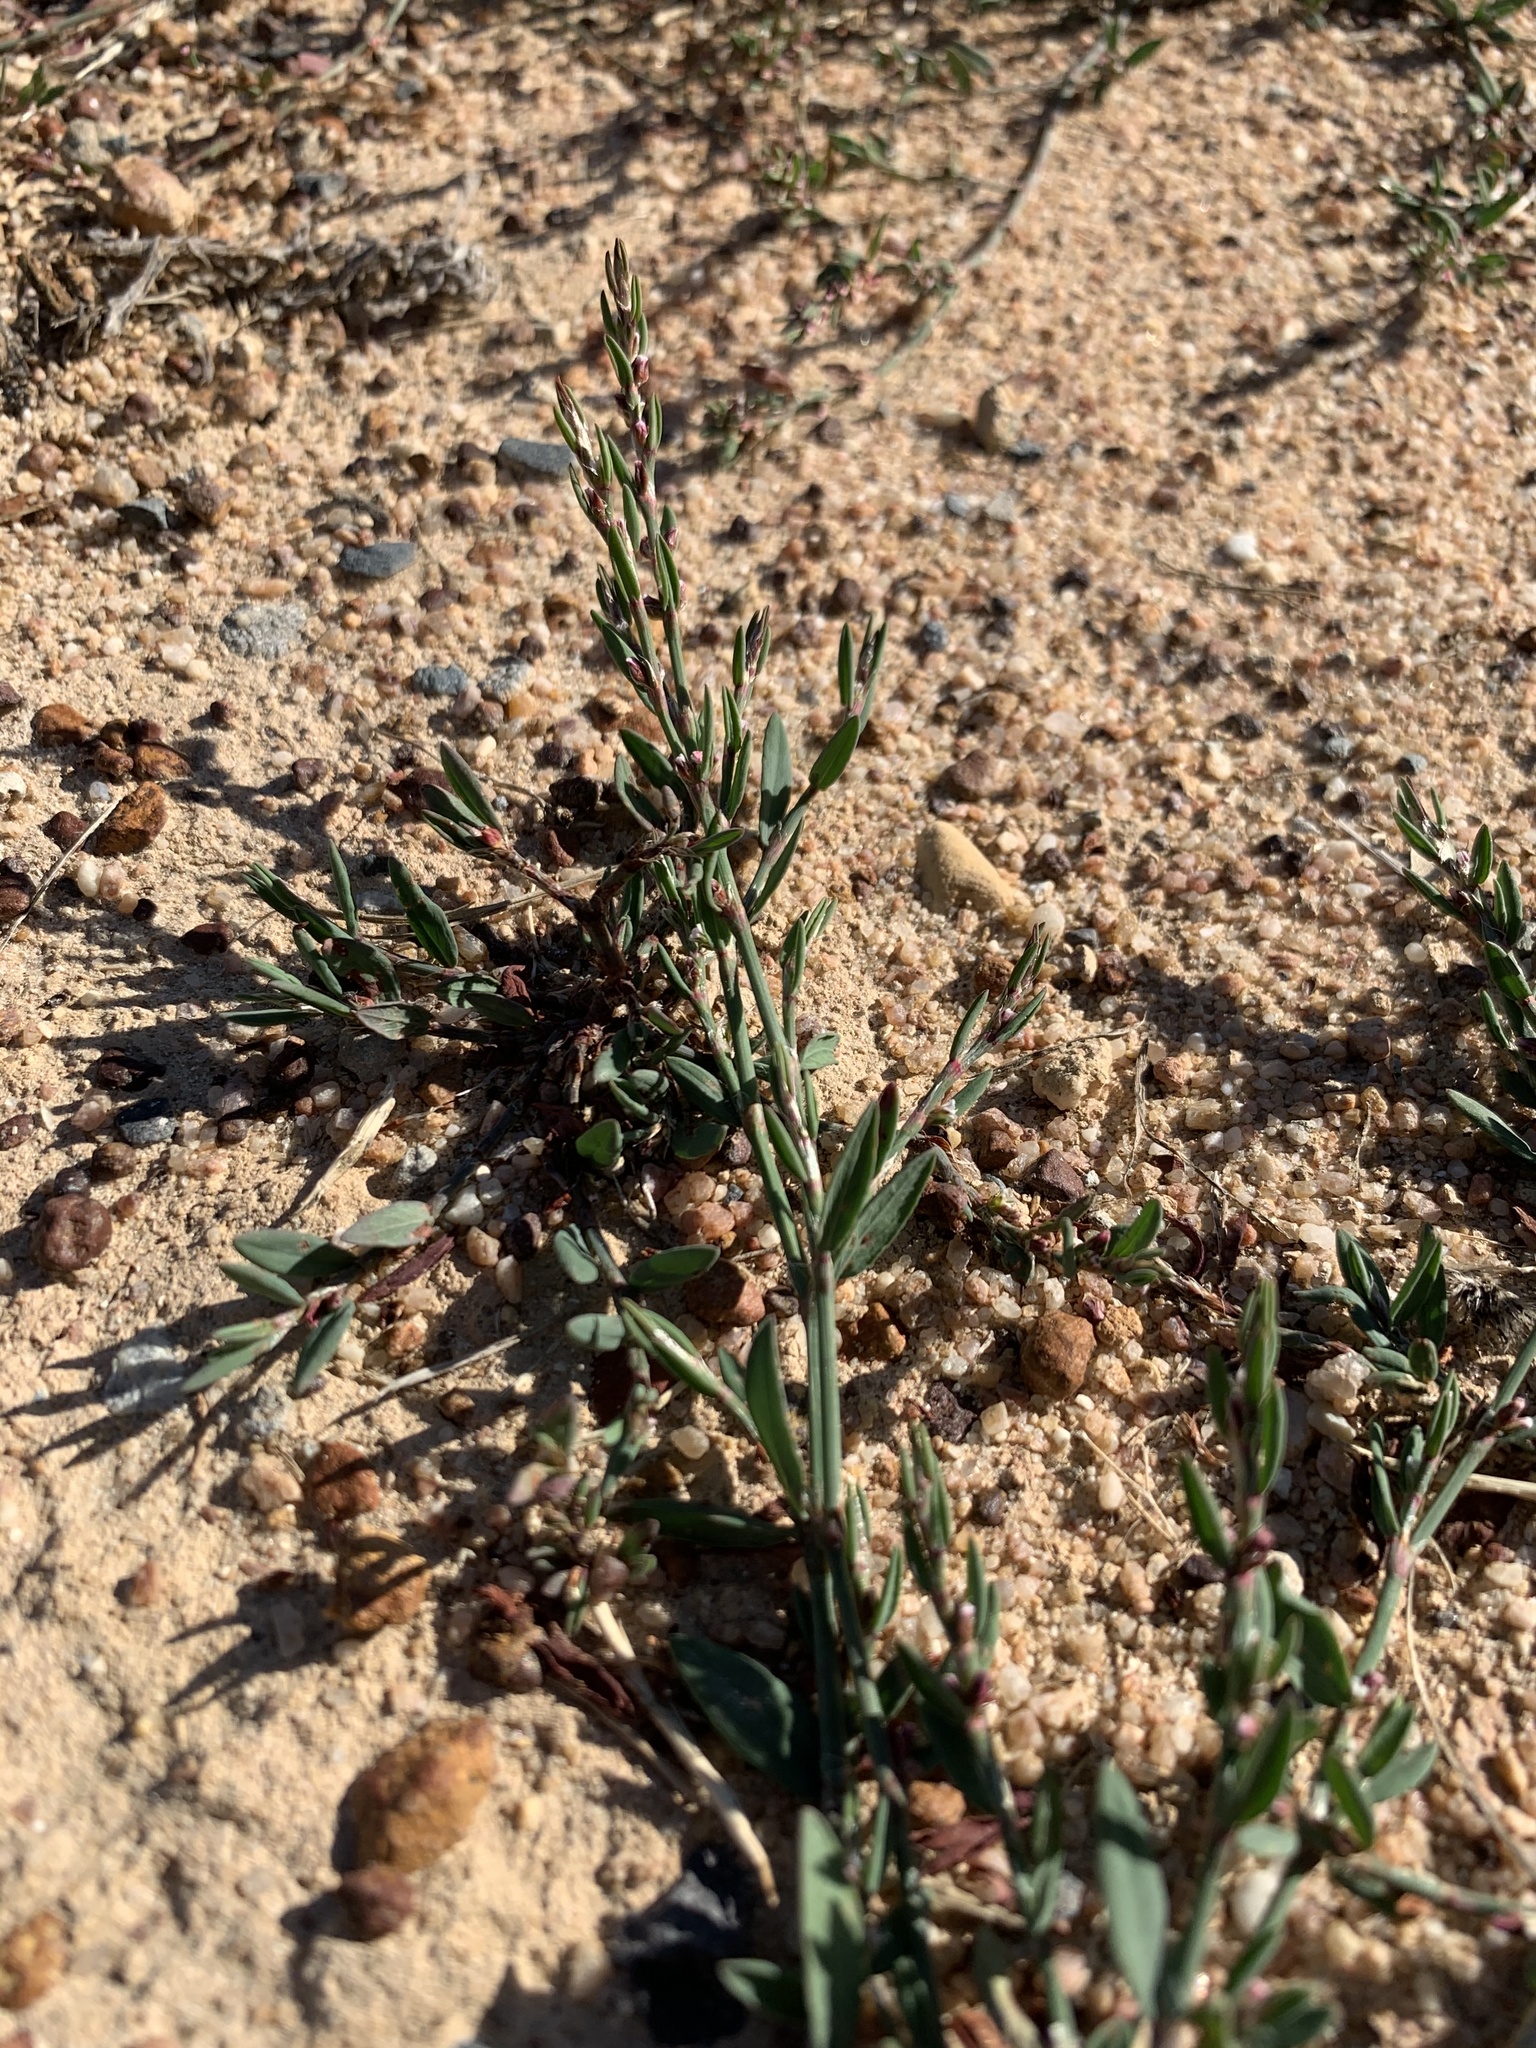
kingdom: Plantae
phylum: Tracheophyta
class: Magnoliopsida
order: Caryophyllales
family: Polygonaceae
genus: Polygonum
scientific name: Polygonum aviculare
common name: Prostrate knotweed
